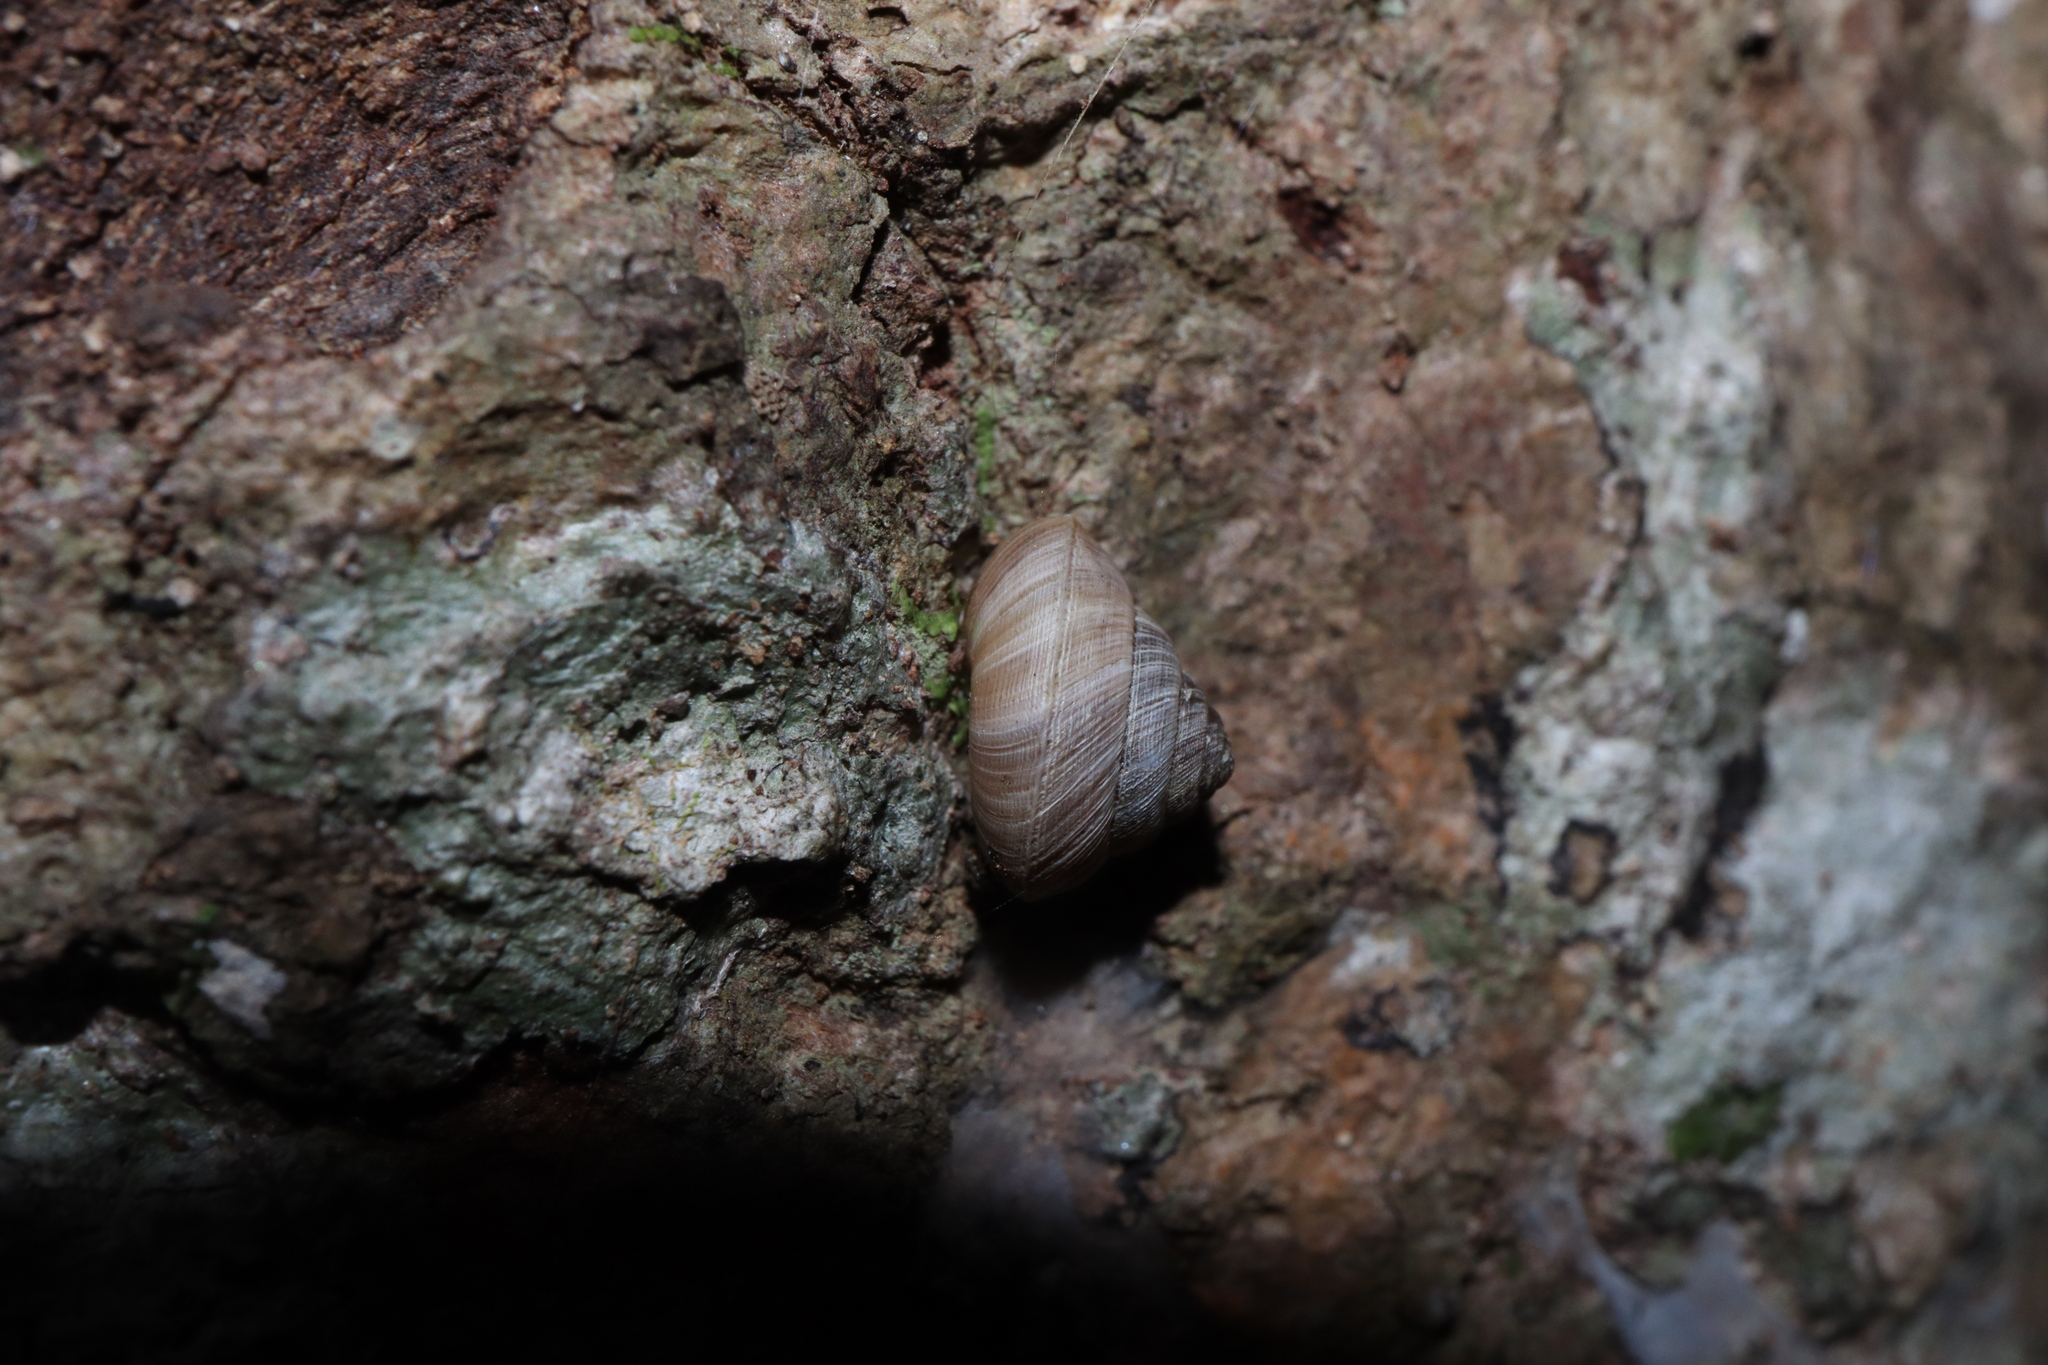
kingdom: Animalia
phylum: Mollusca
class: Gastropoda
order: Stylommatophora
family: Charopidae
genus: Hedleyoconcha
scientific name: Hedleyoconcha delta
